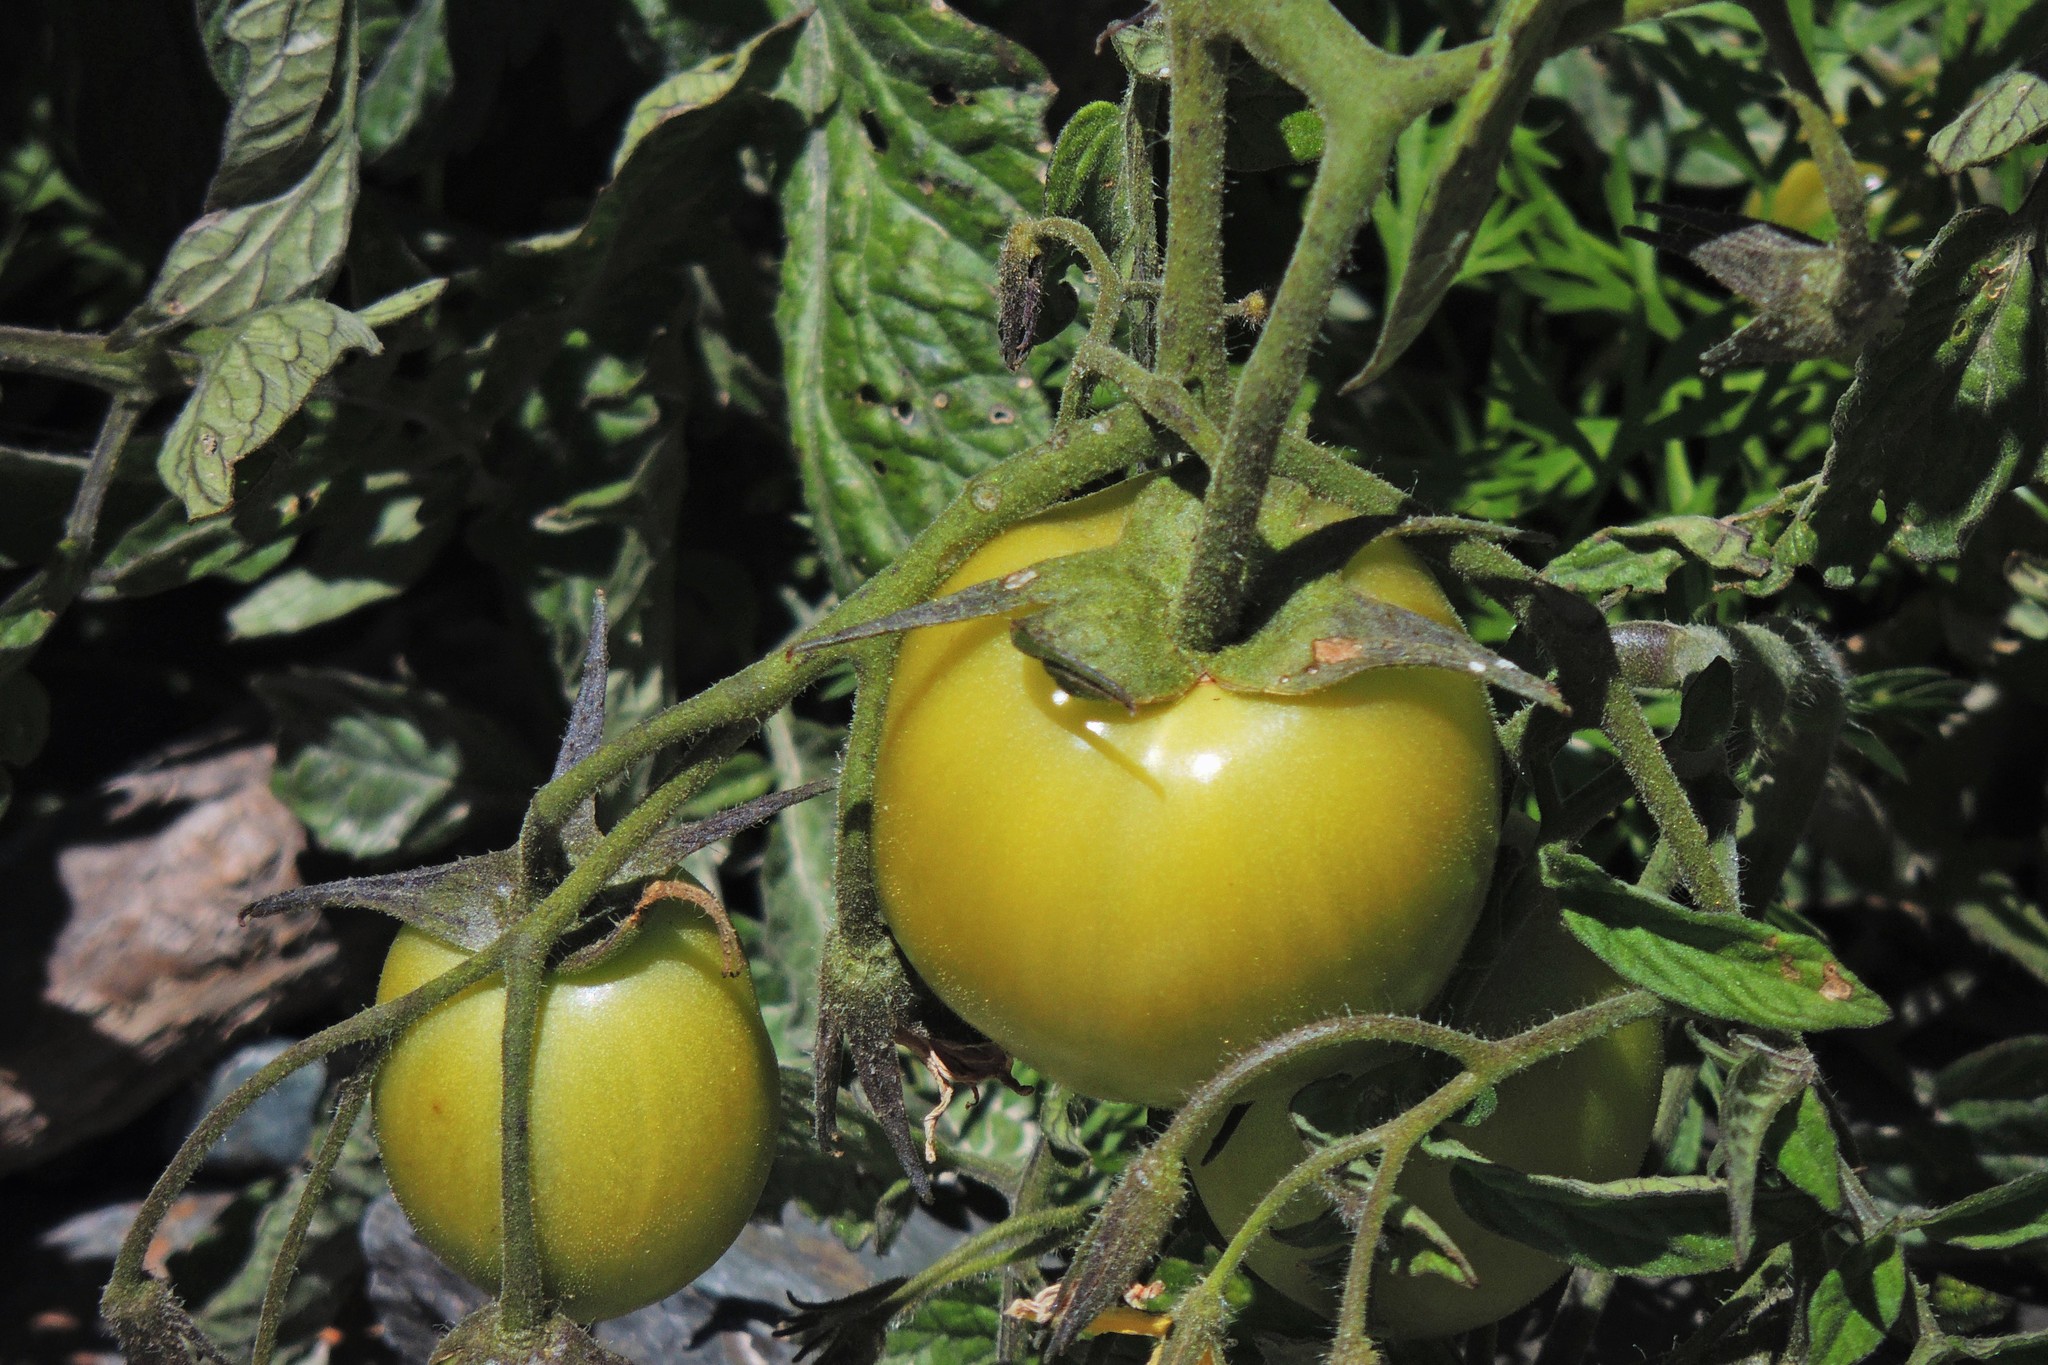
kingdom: Plantae
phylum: Tracheophyta
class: Magnoliopsida
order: Solanales
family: Solanaceae
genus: Solanum
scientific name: Solanum lycopersicum
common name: Garden tomato
